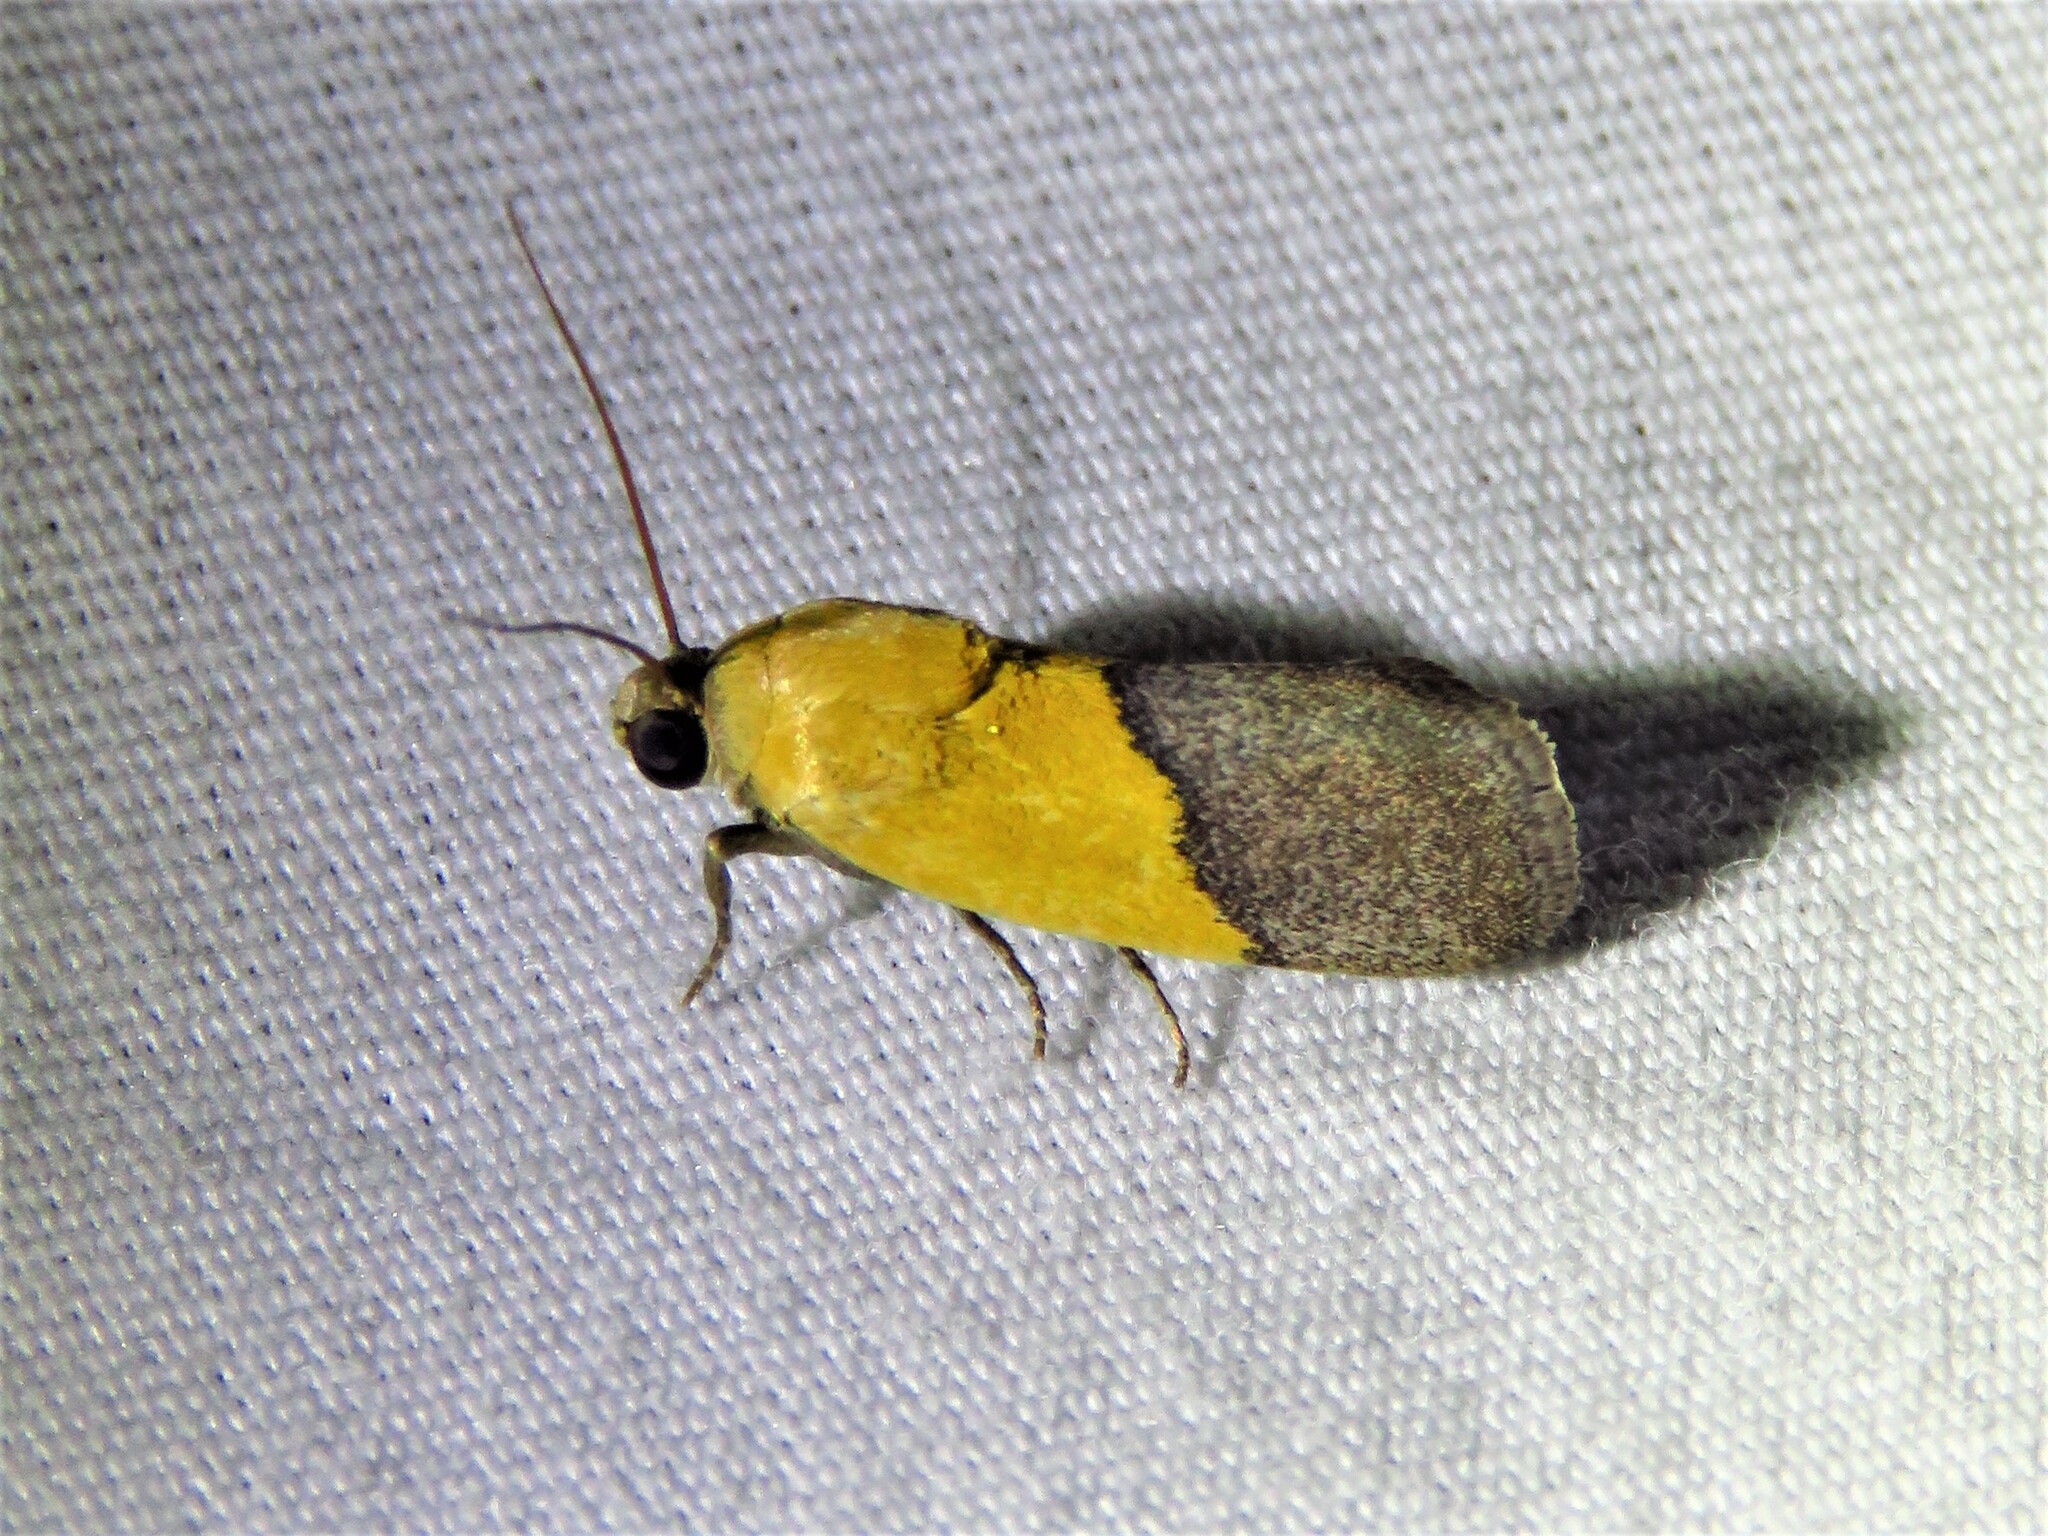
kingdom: Animalia
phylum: Arthropoda
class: Insecta
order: Lepidoptera
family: Noctuidae
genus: Acontia
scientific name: Acontia semiflava
